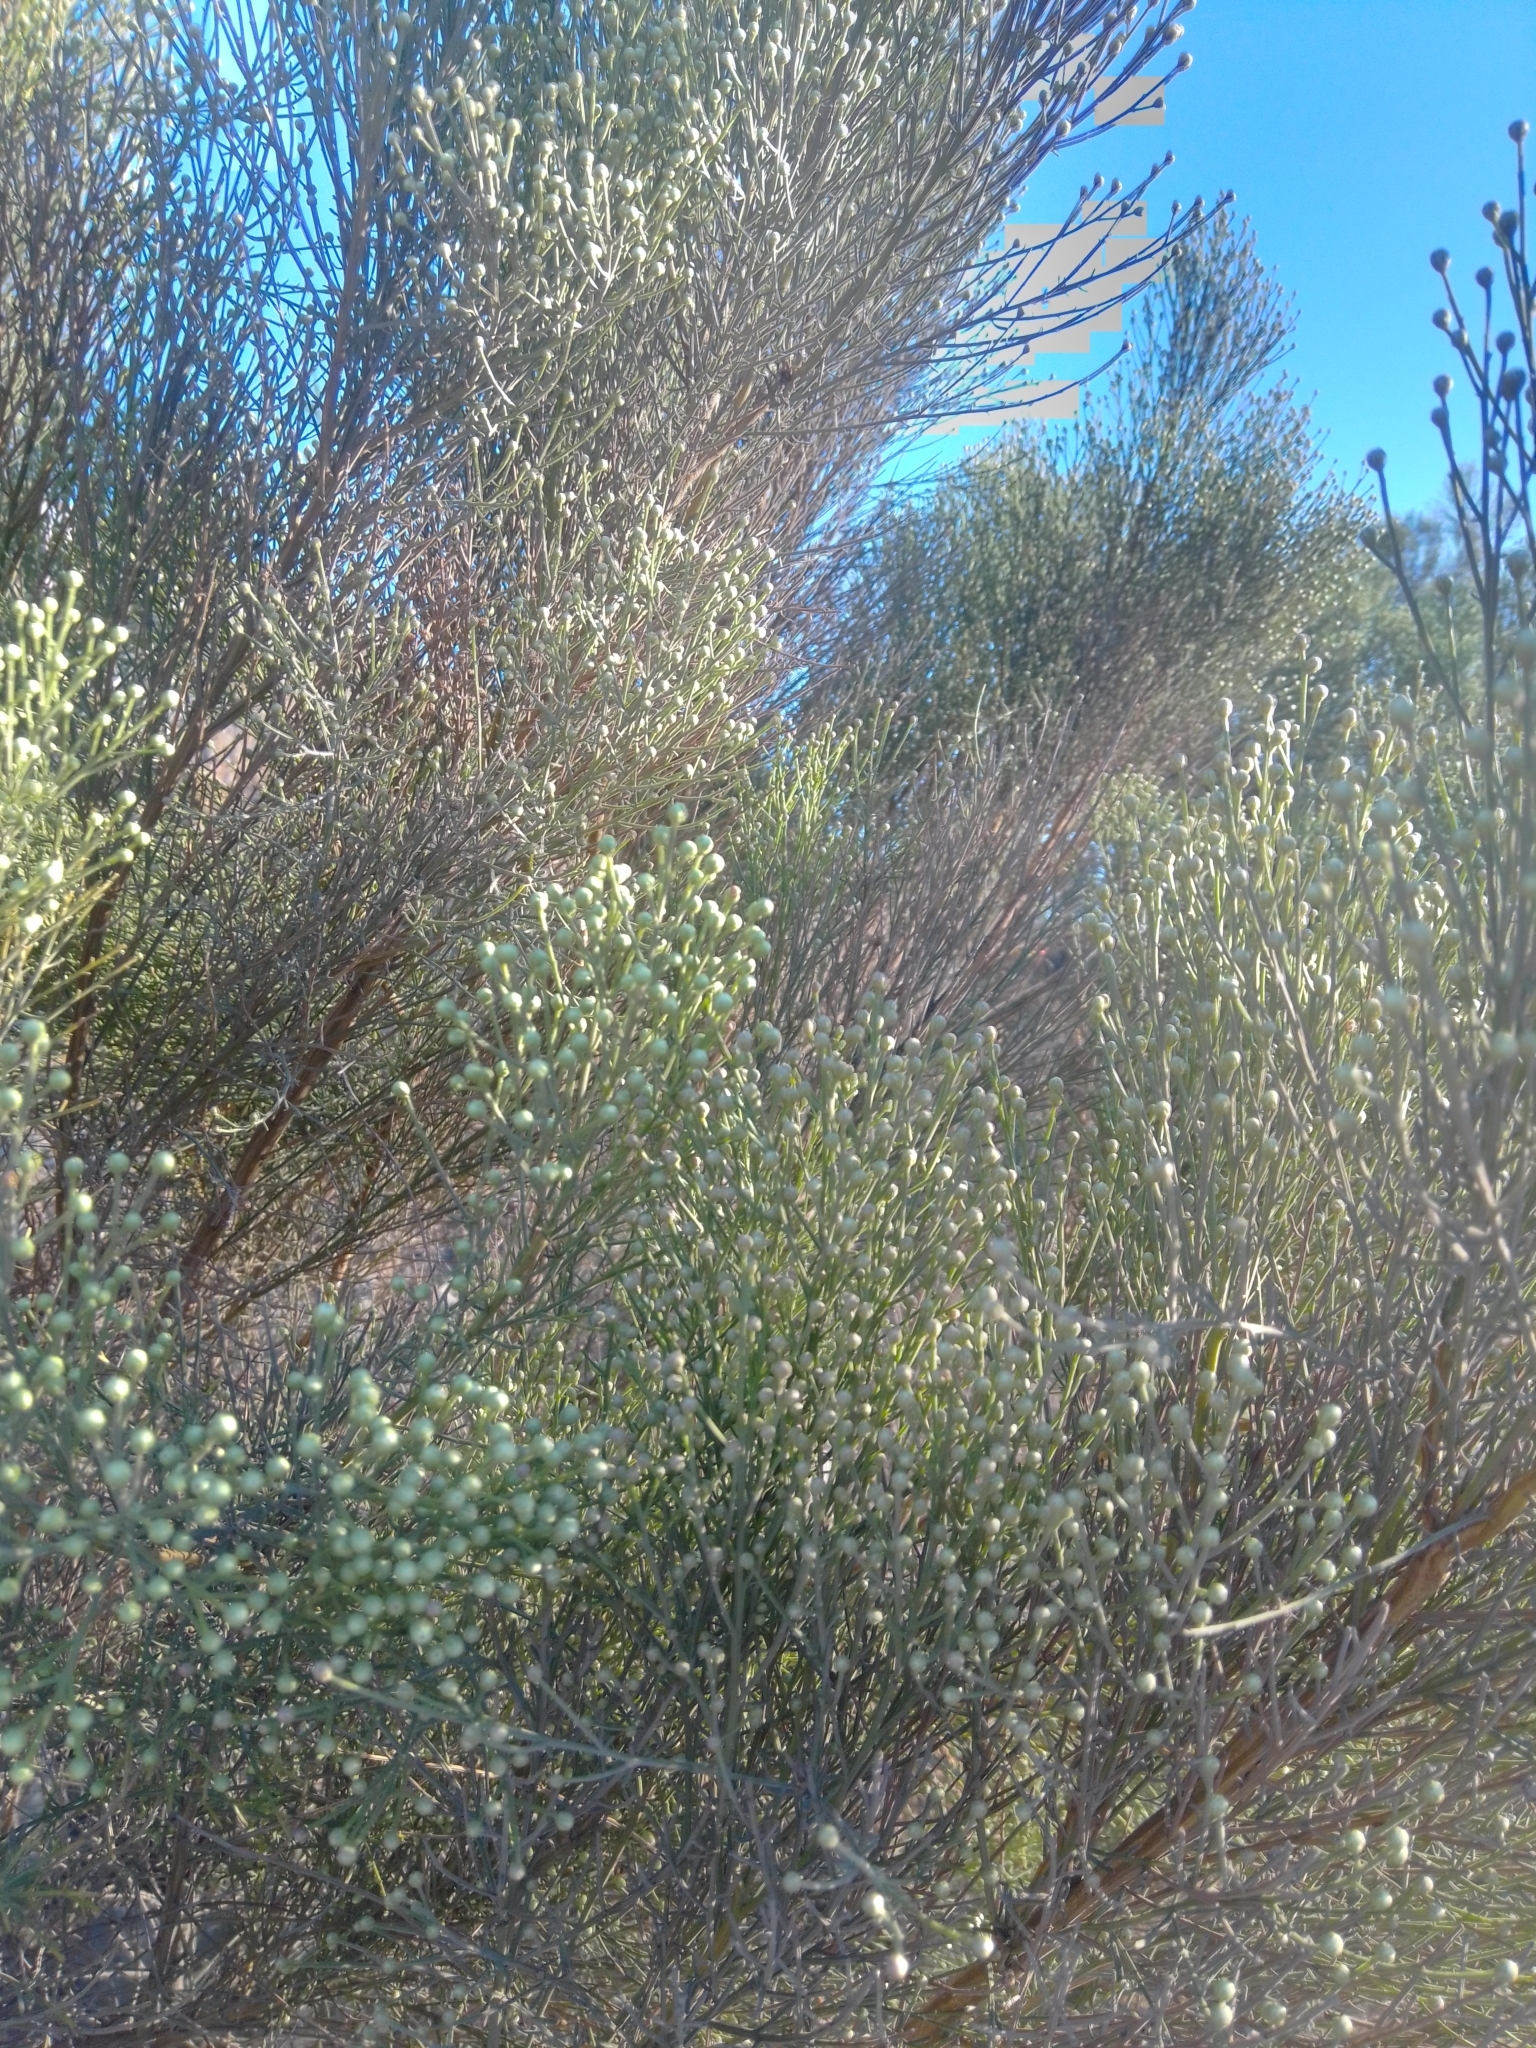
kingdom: Plantae
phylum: Tracheophyta
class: Magnoliopsida
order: Asterales
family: Asteraceae
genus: Baccharis
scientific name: Baccharis sarothroides
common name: Desert-broom
